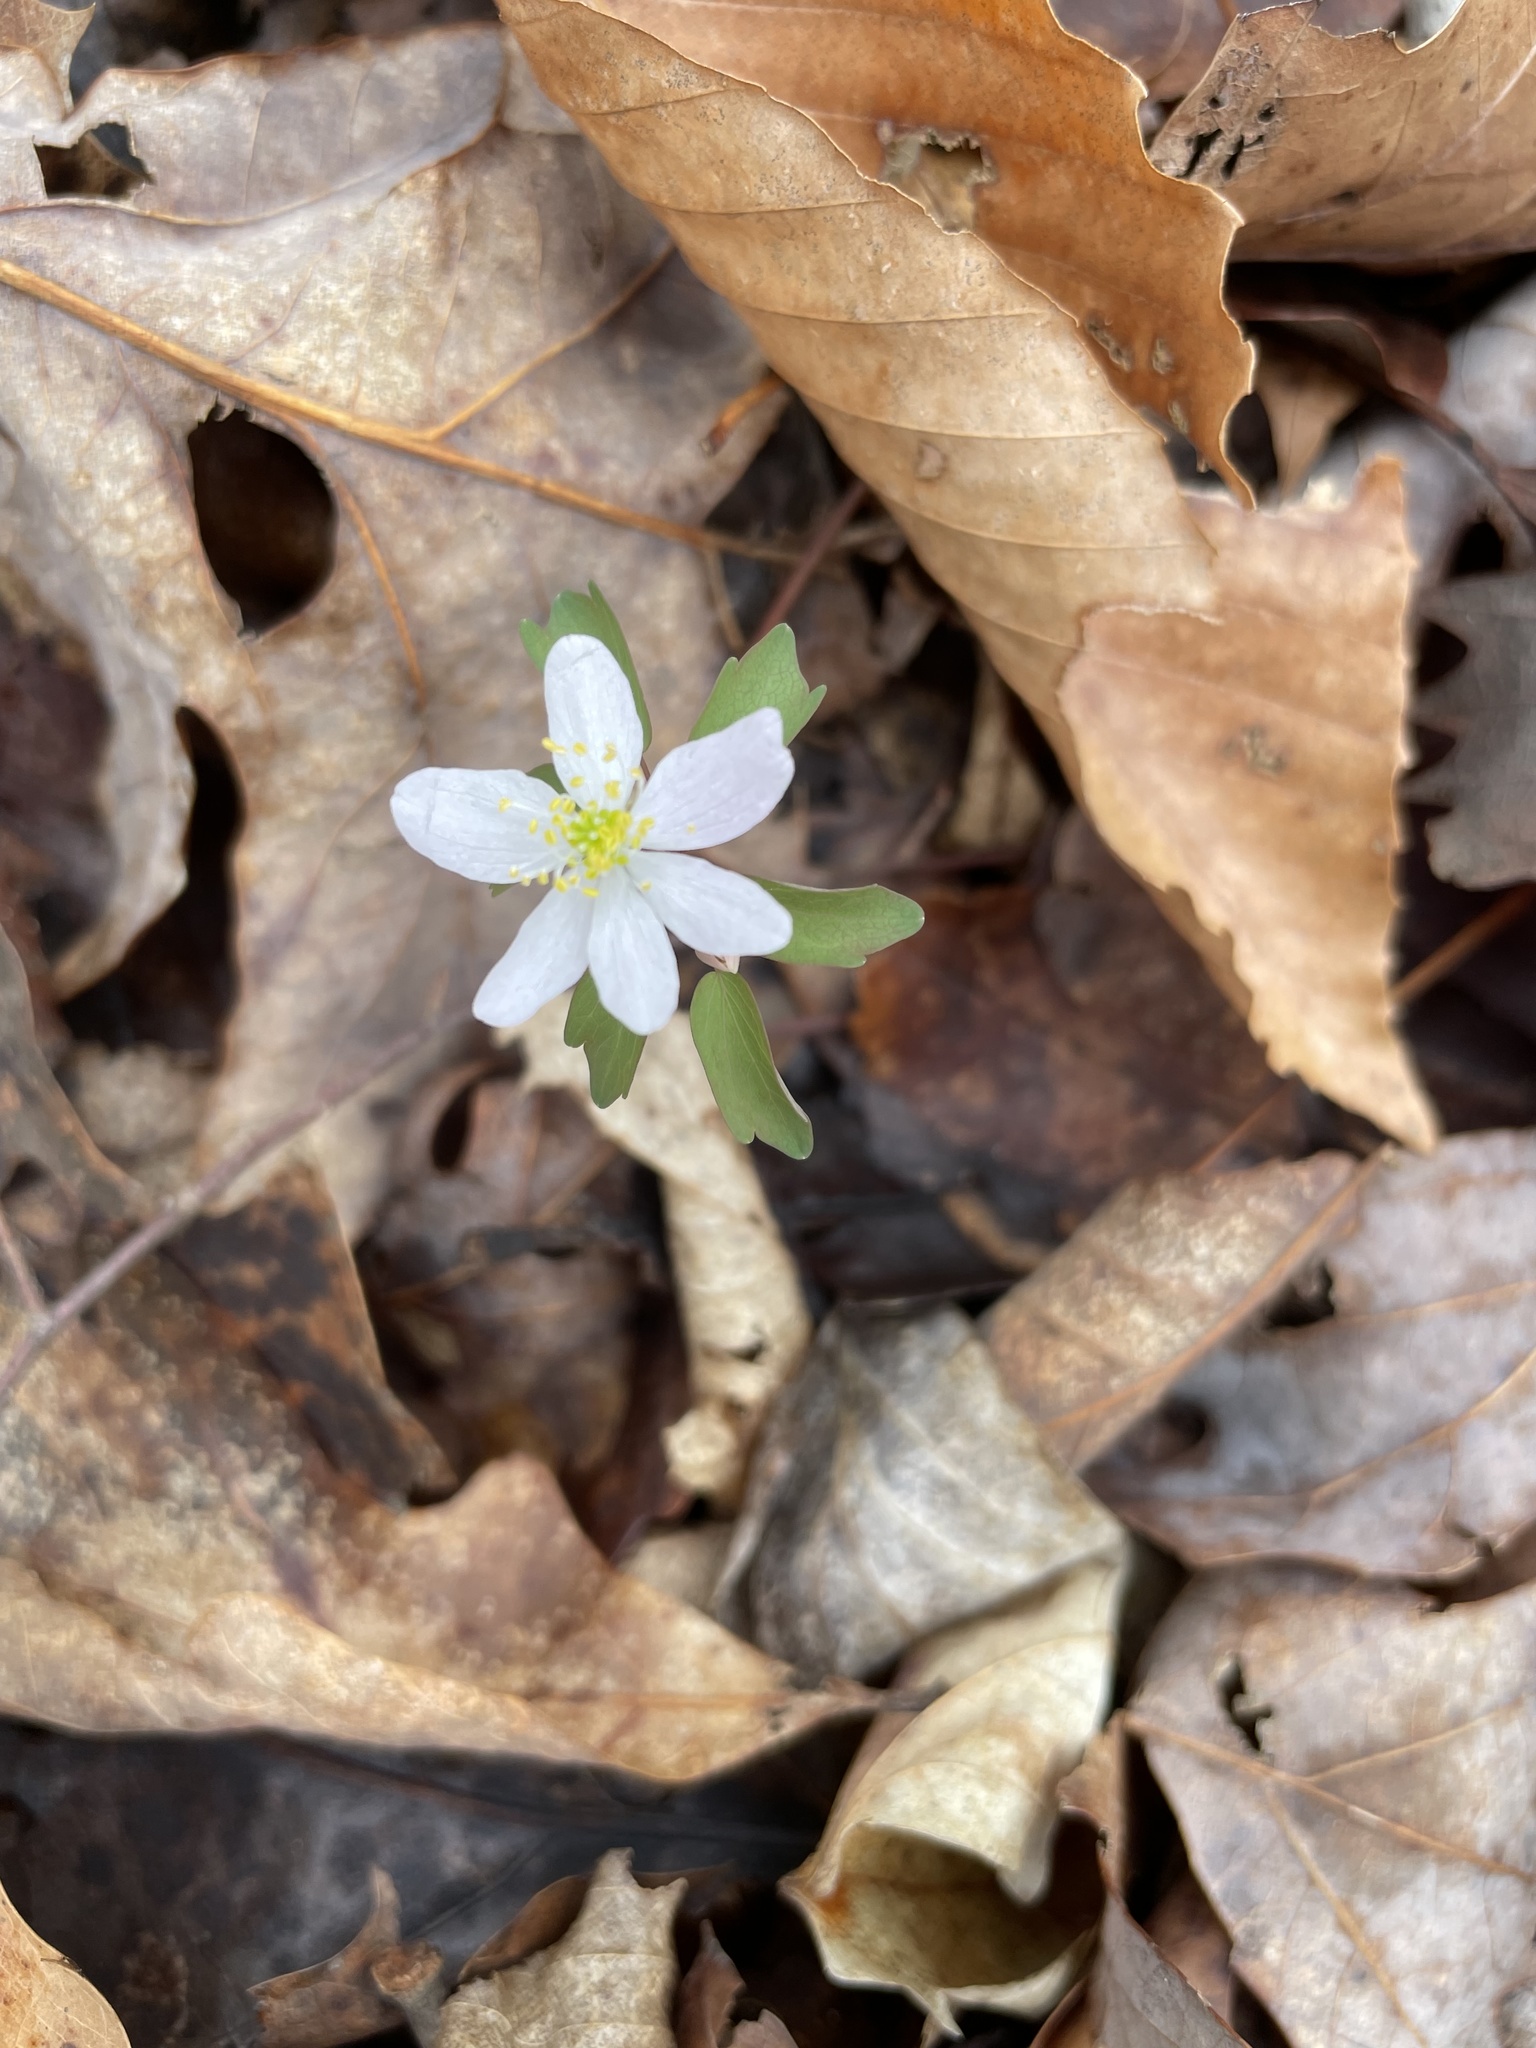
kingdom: Plantae
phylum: Tracheophyta
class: Magnoliopsida
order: Ranunculales
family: Ranunculaceae
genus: Thalictrum
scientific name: Thalictrum thalictroides
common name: Rue-anemone
